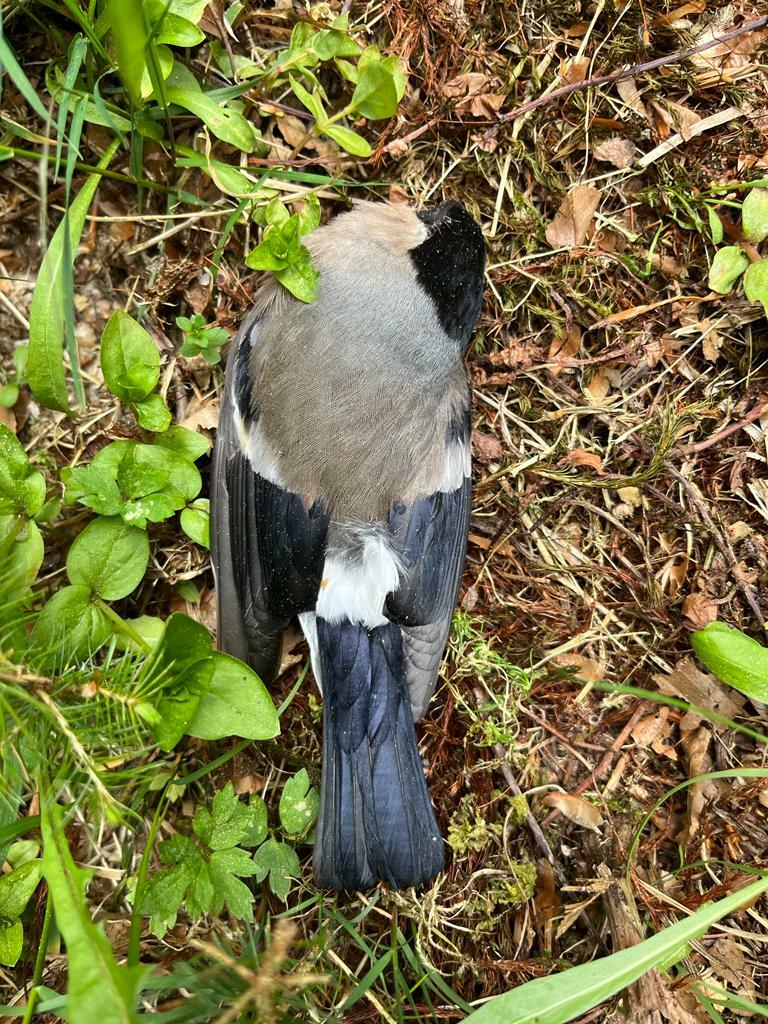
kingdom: Animalia
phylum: Chordata
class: Aves
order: Passeriformes
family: Fringillidae
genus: Pyrrhula
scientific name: Pyrrhula pyrrhula
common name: Eurasian bullfinch
